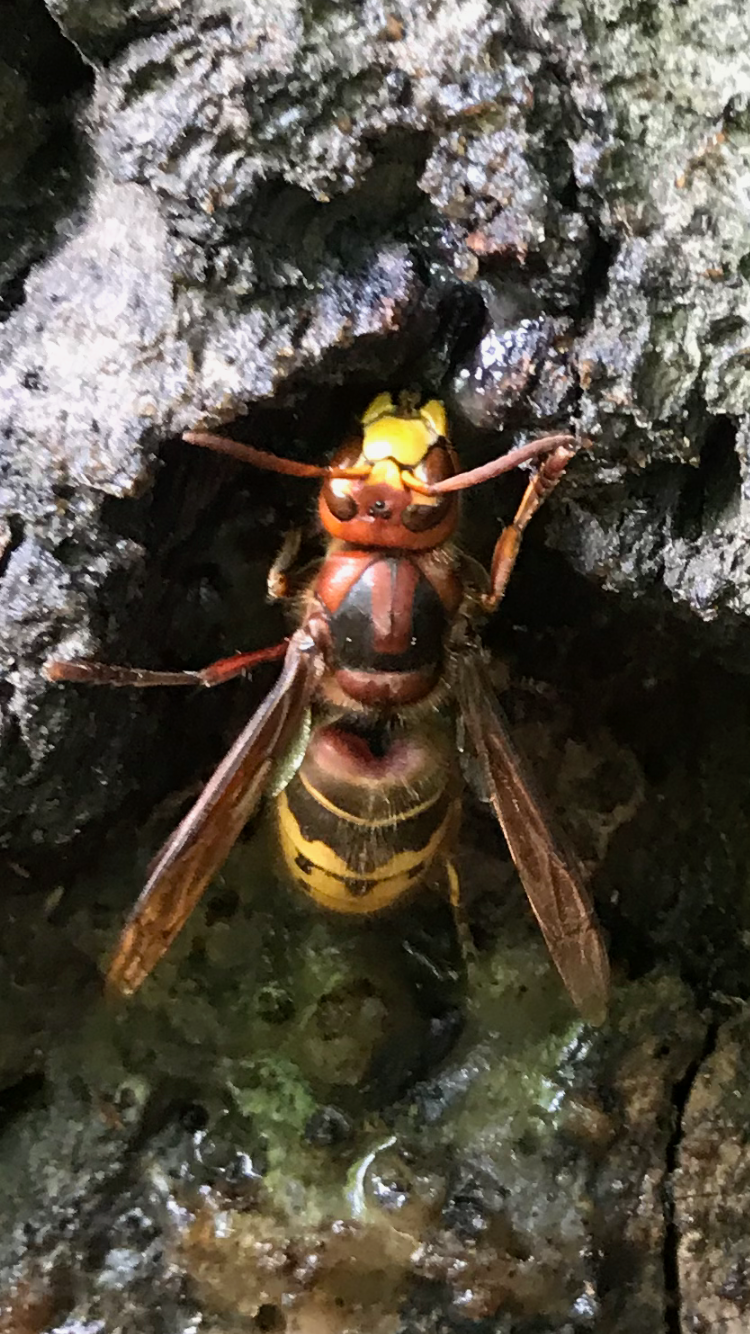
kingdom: Animalia
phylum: Arthropoda
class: Insecta
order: Hymenoptera
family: Vespidae
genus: Vespa
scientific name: Vespa crabro
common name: Hornet
